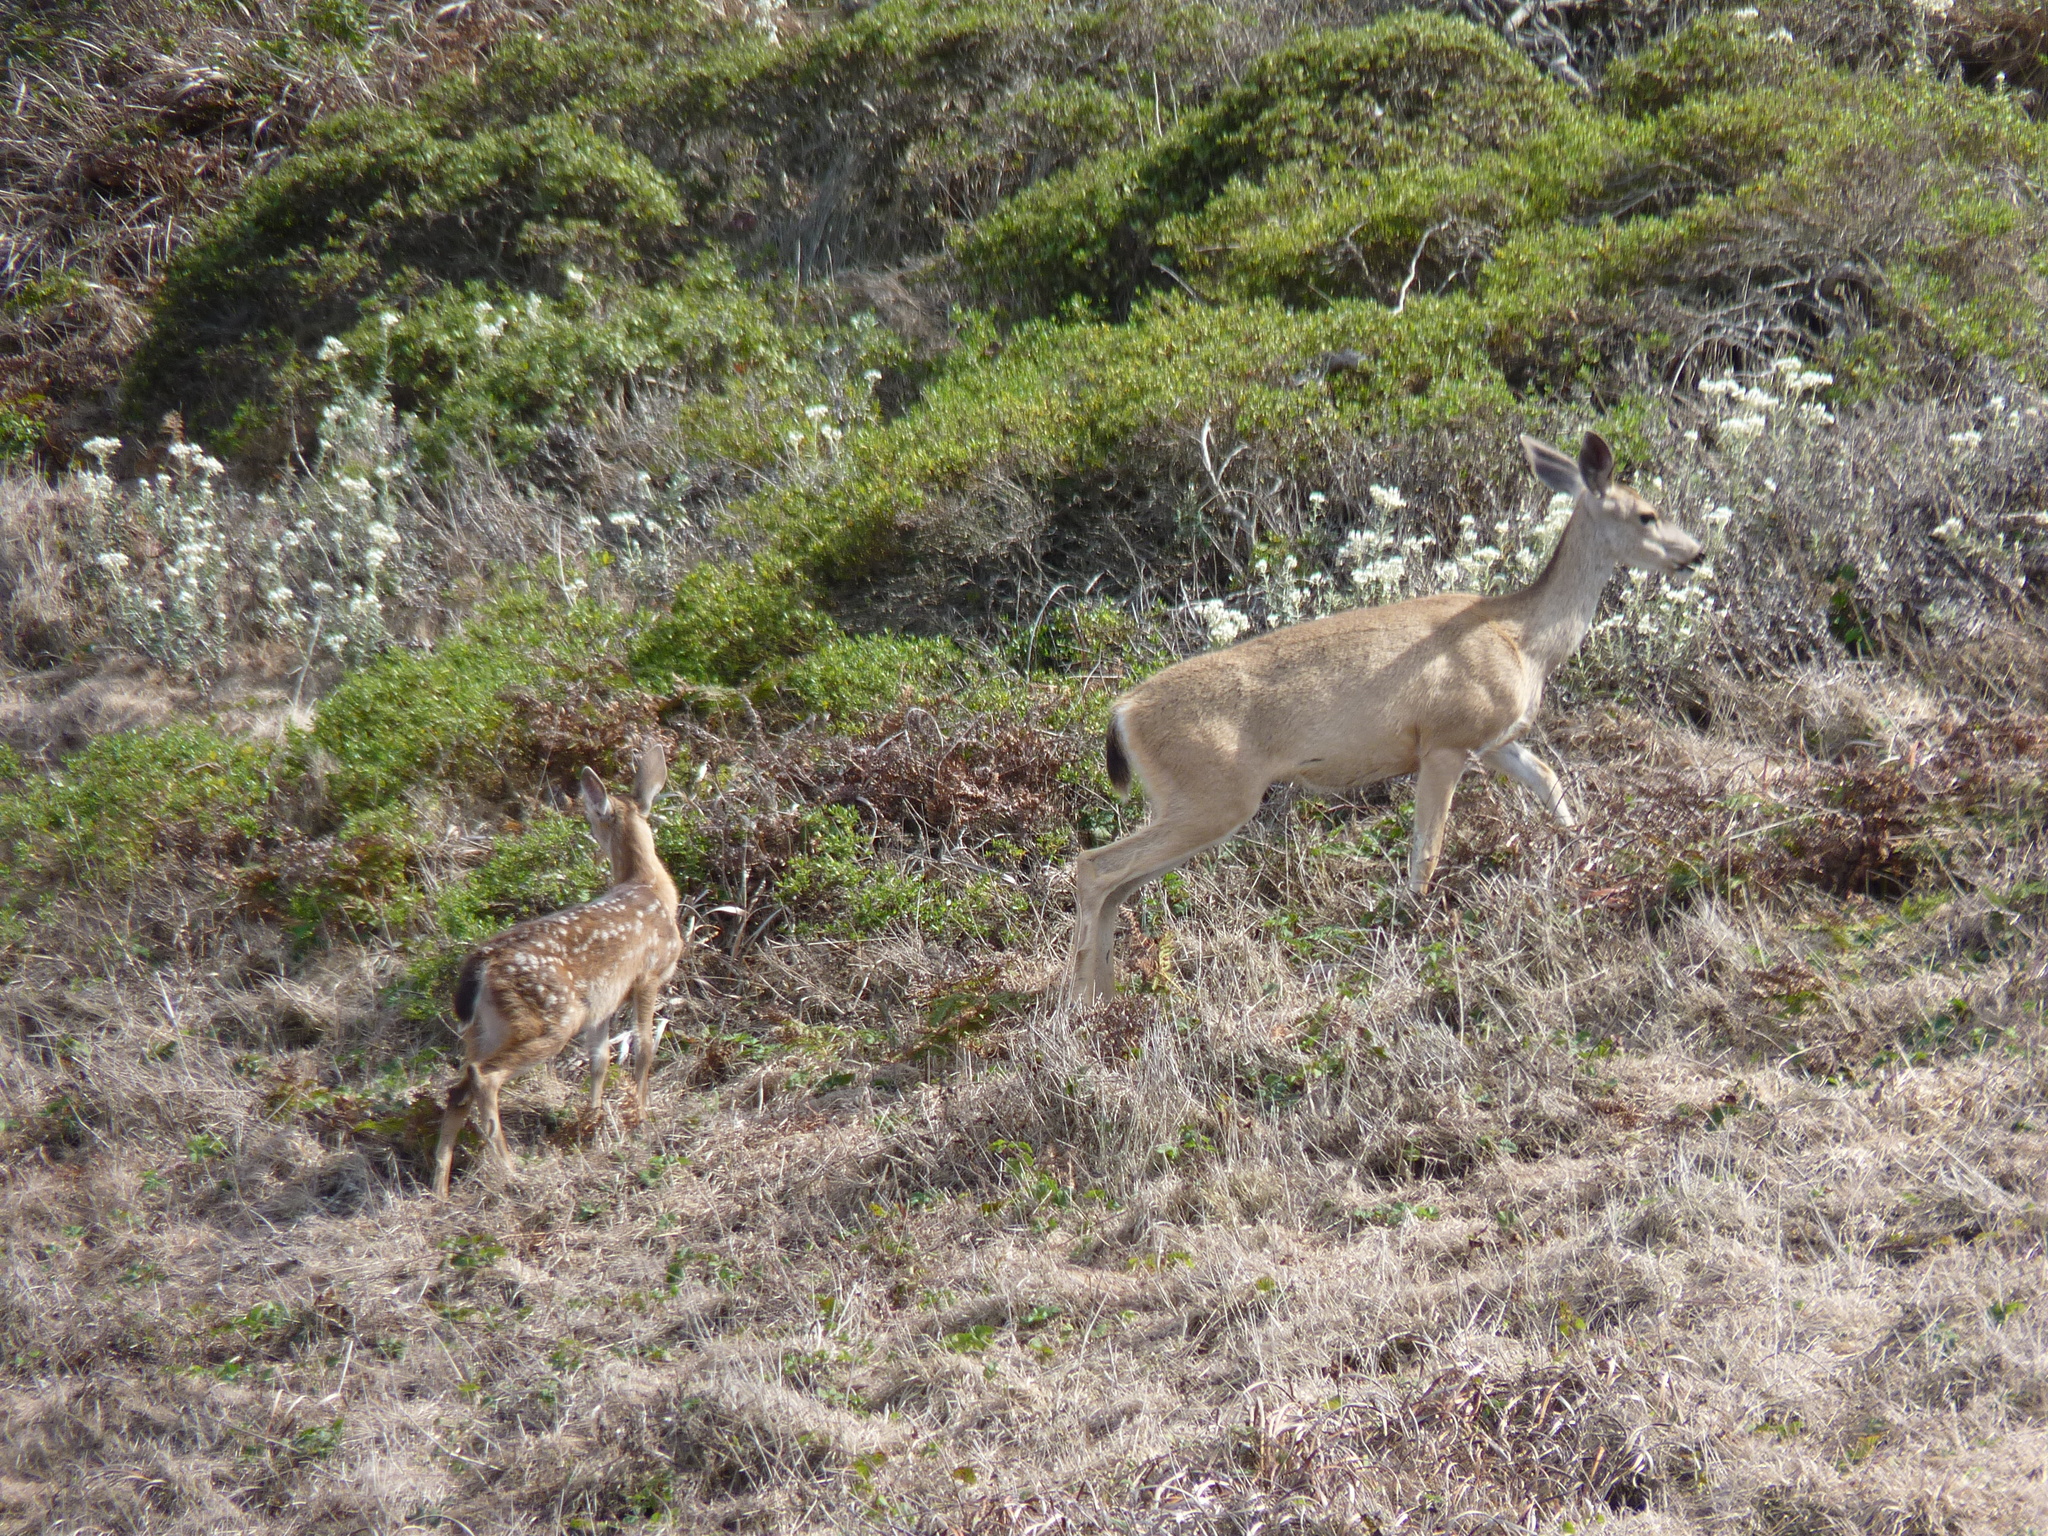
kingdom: Animalia
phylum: Chordata
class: Mammalia
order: Artiodactyla
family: Cervidae
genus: Odocoileus
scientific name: Odocoileus hemionus
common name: Mule deer
